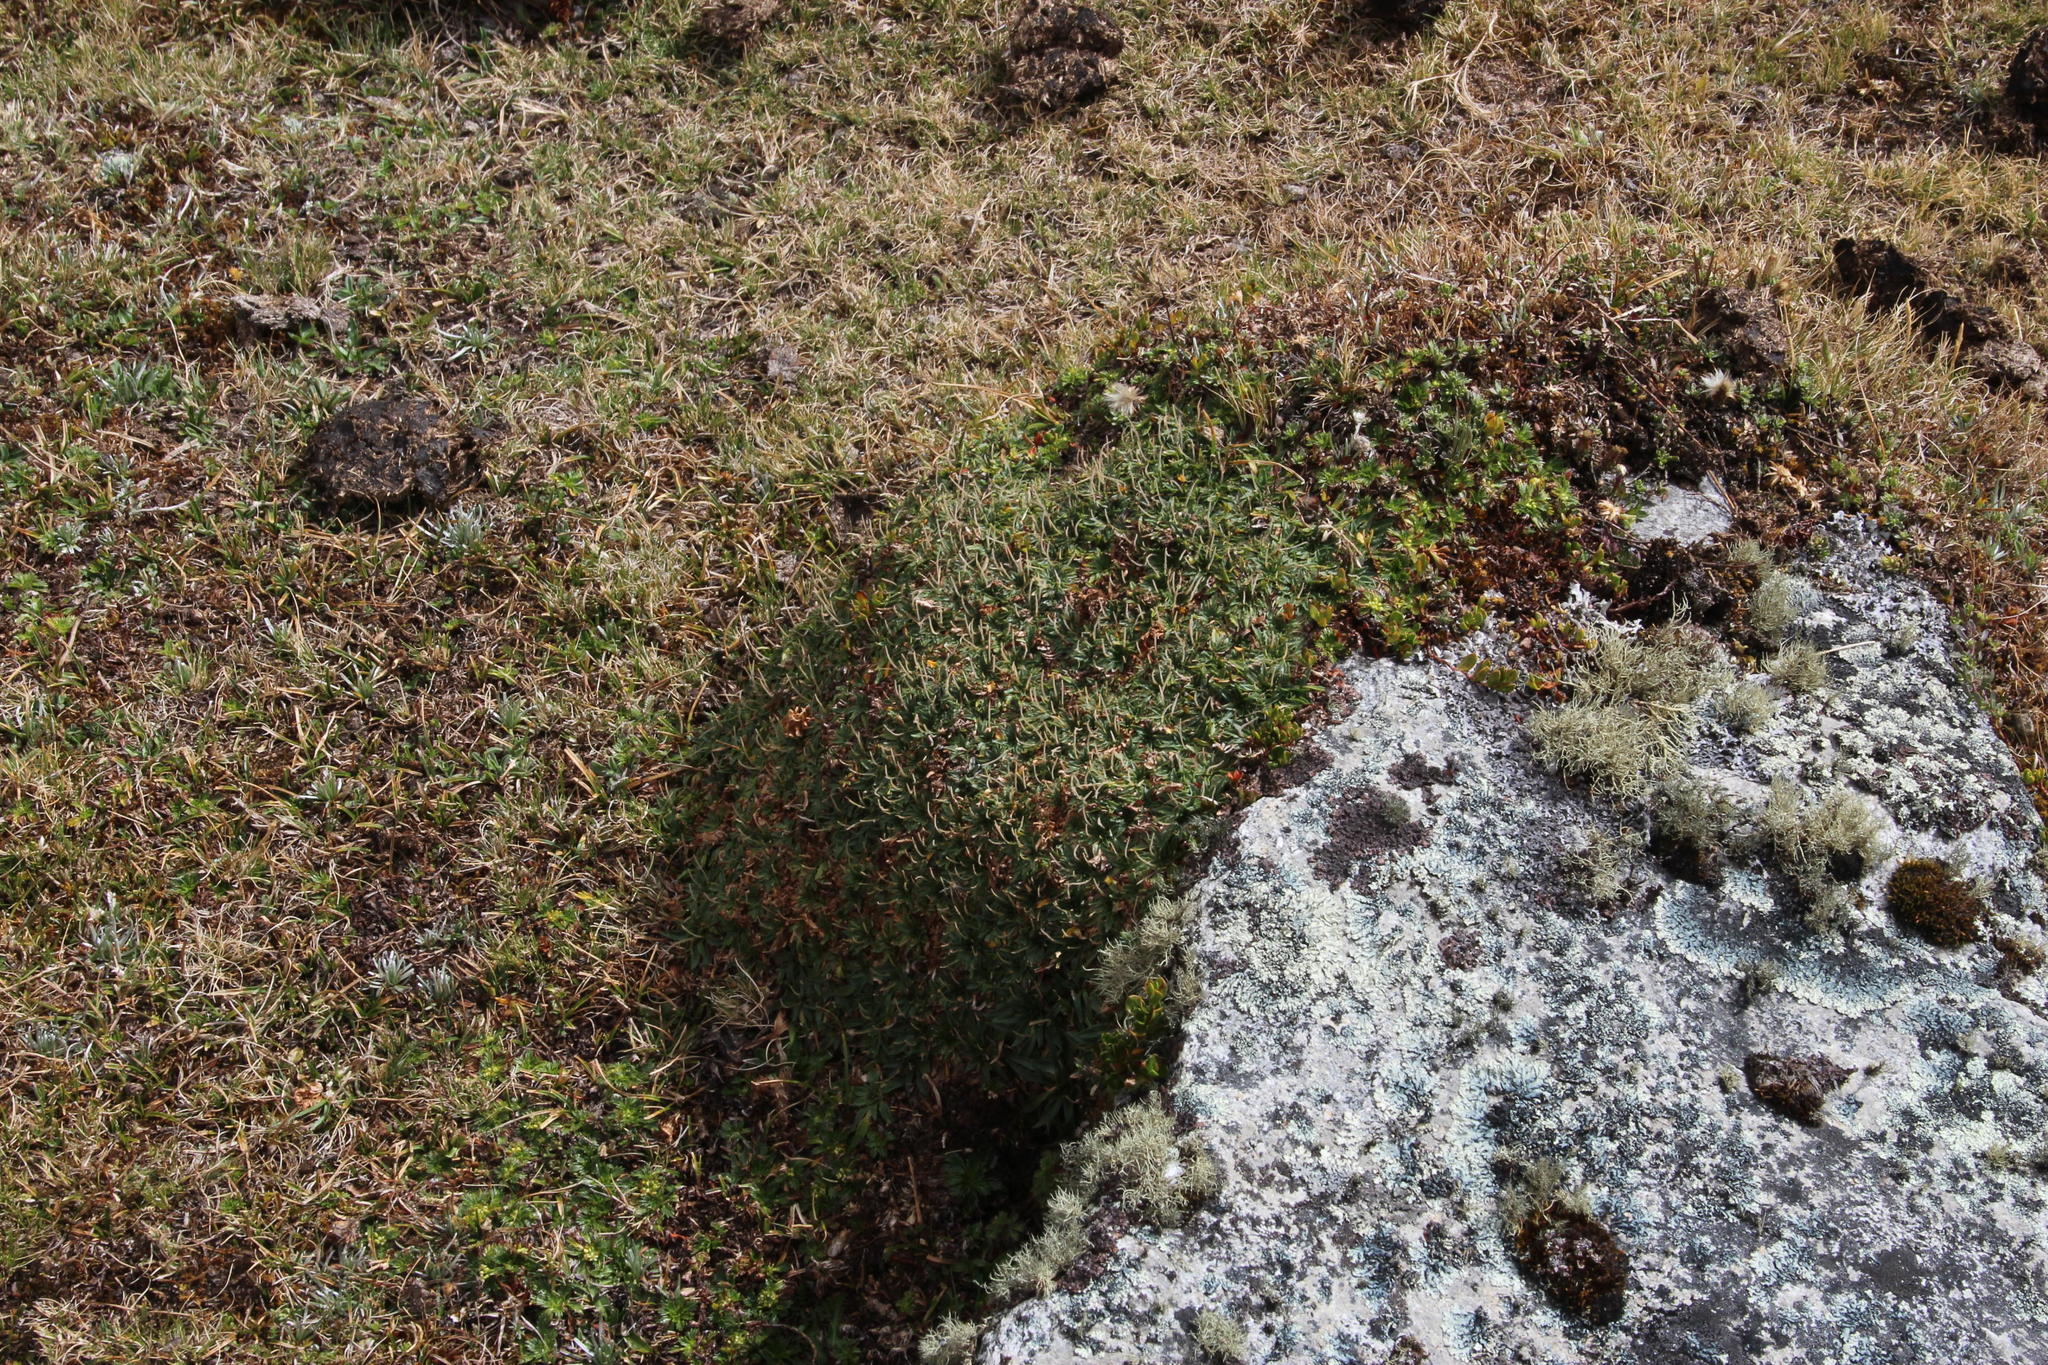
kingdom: Plantae
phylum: Tracheophyta
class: Magnoliopsida
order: Lamiales
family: Plantaginaceae
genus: Plantago
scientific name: Plantago rigida
